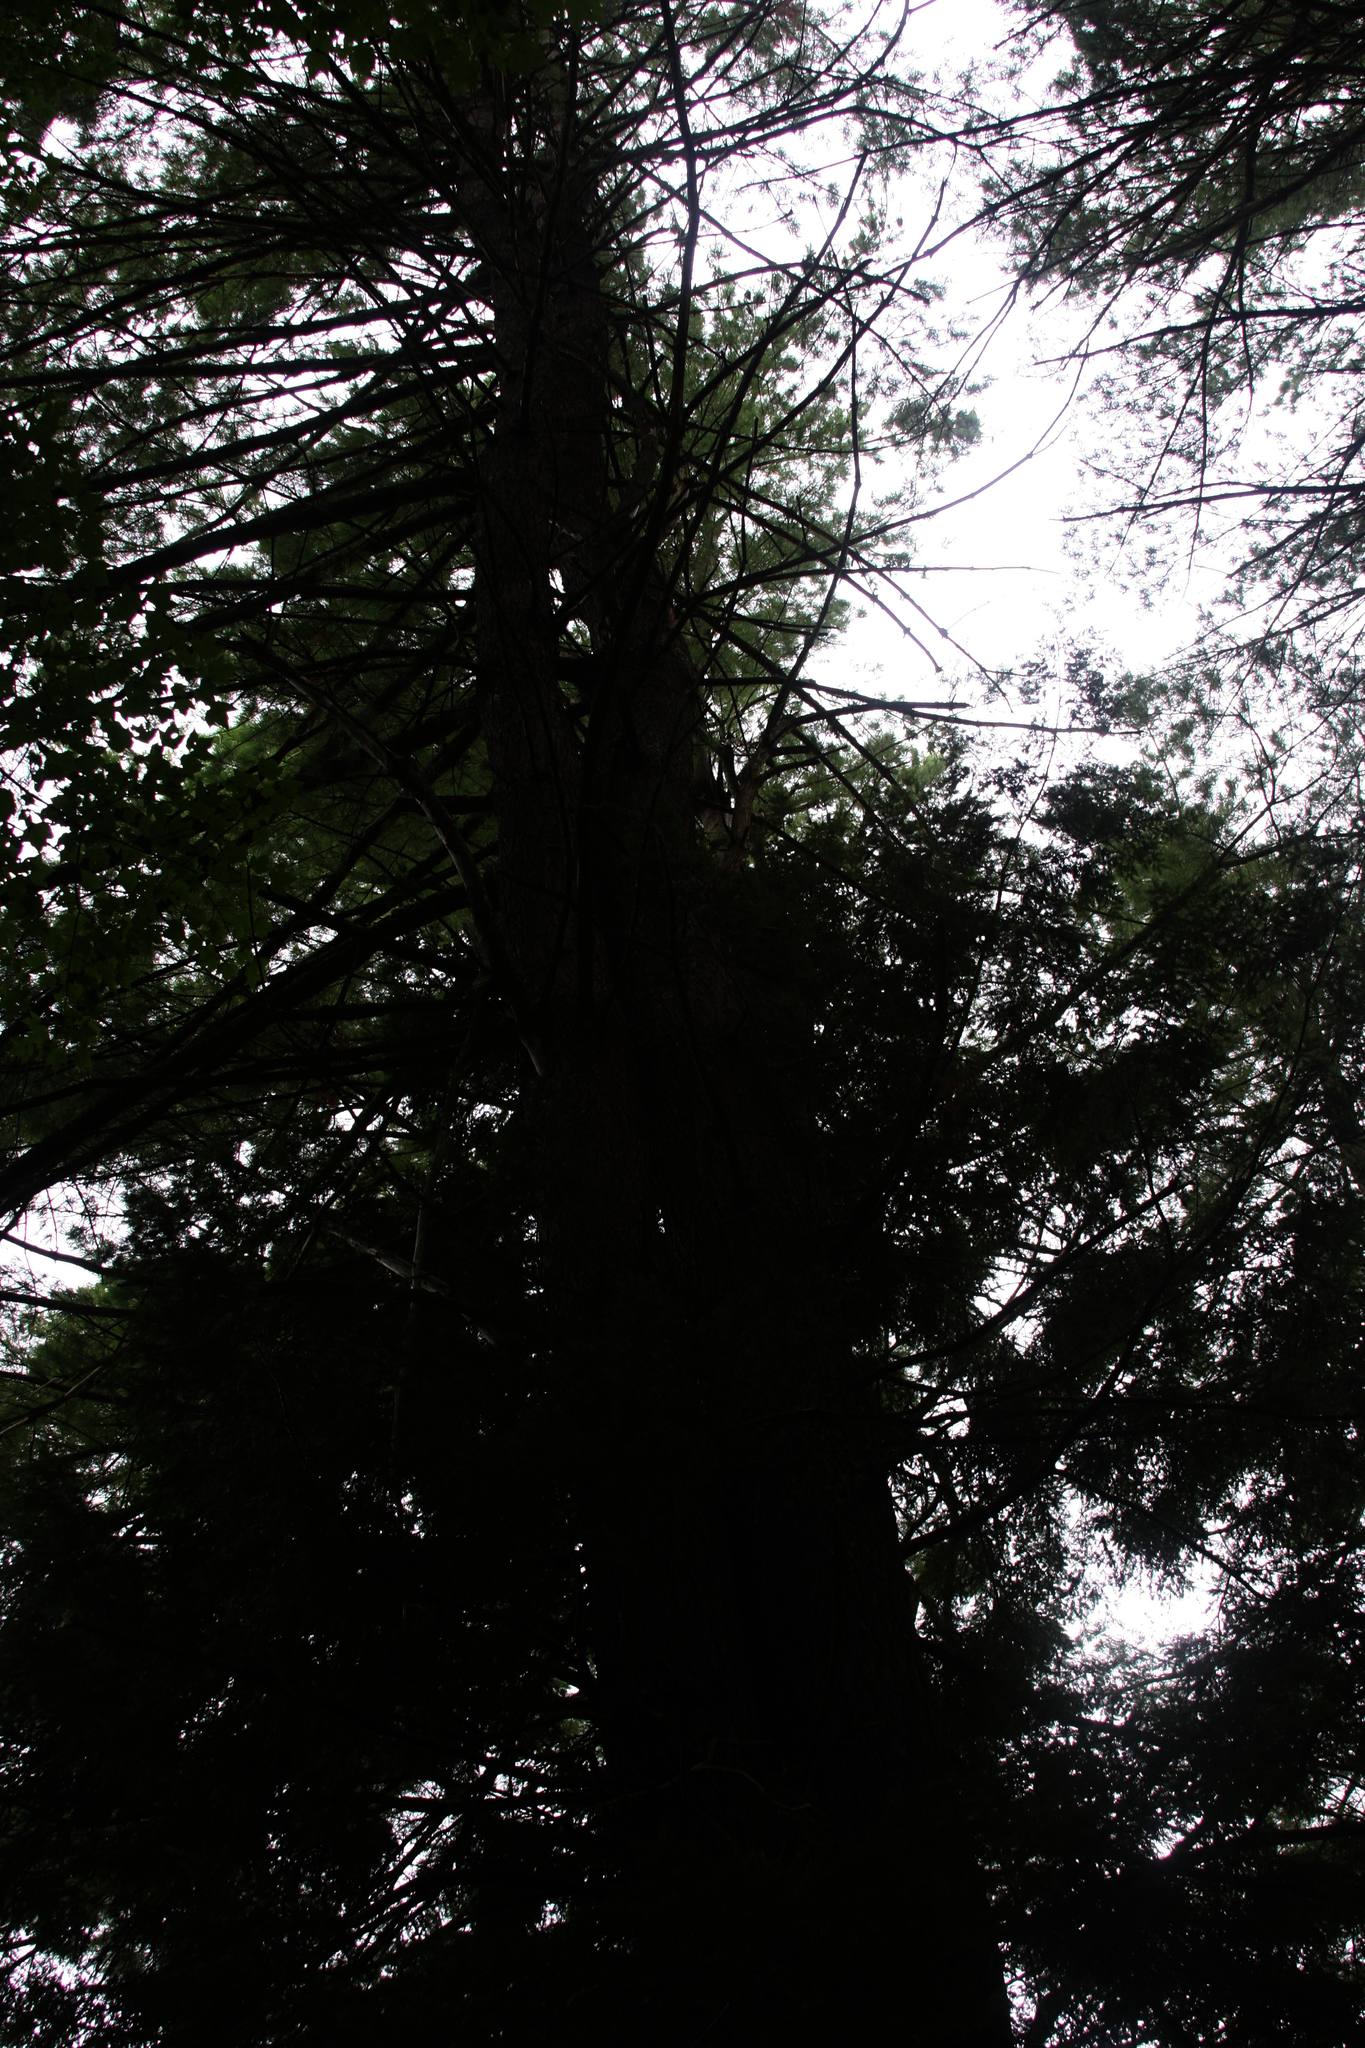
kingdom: Plantae
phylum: Tracheophyta
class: Pinopsida
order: Pinales
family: Pinaceae
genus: Pinus
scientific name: Pinus strobus
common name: Weymouth pine
